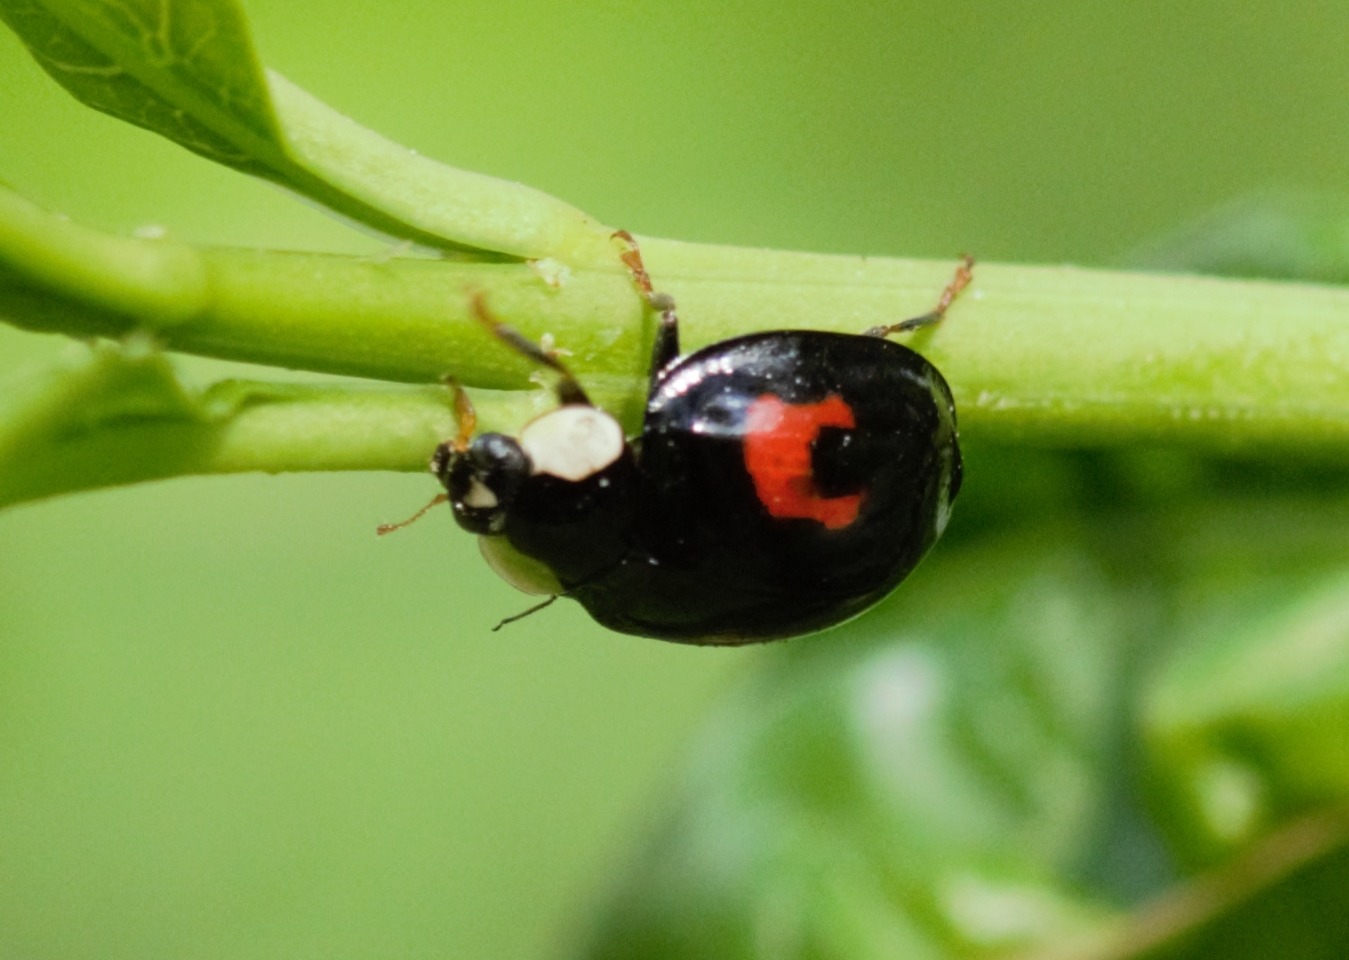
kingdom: Animalia
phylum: Arthropoda
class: Insecta
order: Coleoptera
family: Coccinellidae
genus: Harmonia
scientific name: Harmonia axyridis
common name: Harlequin ladybird
